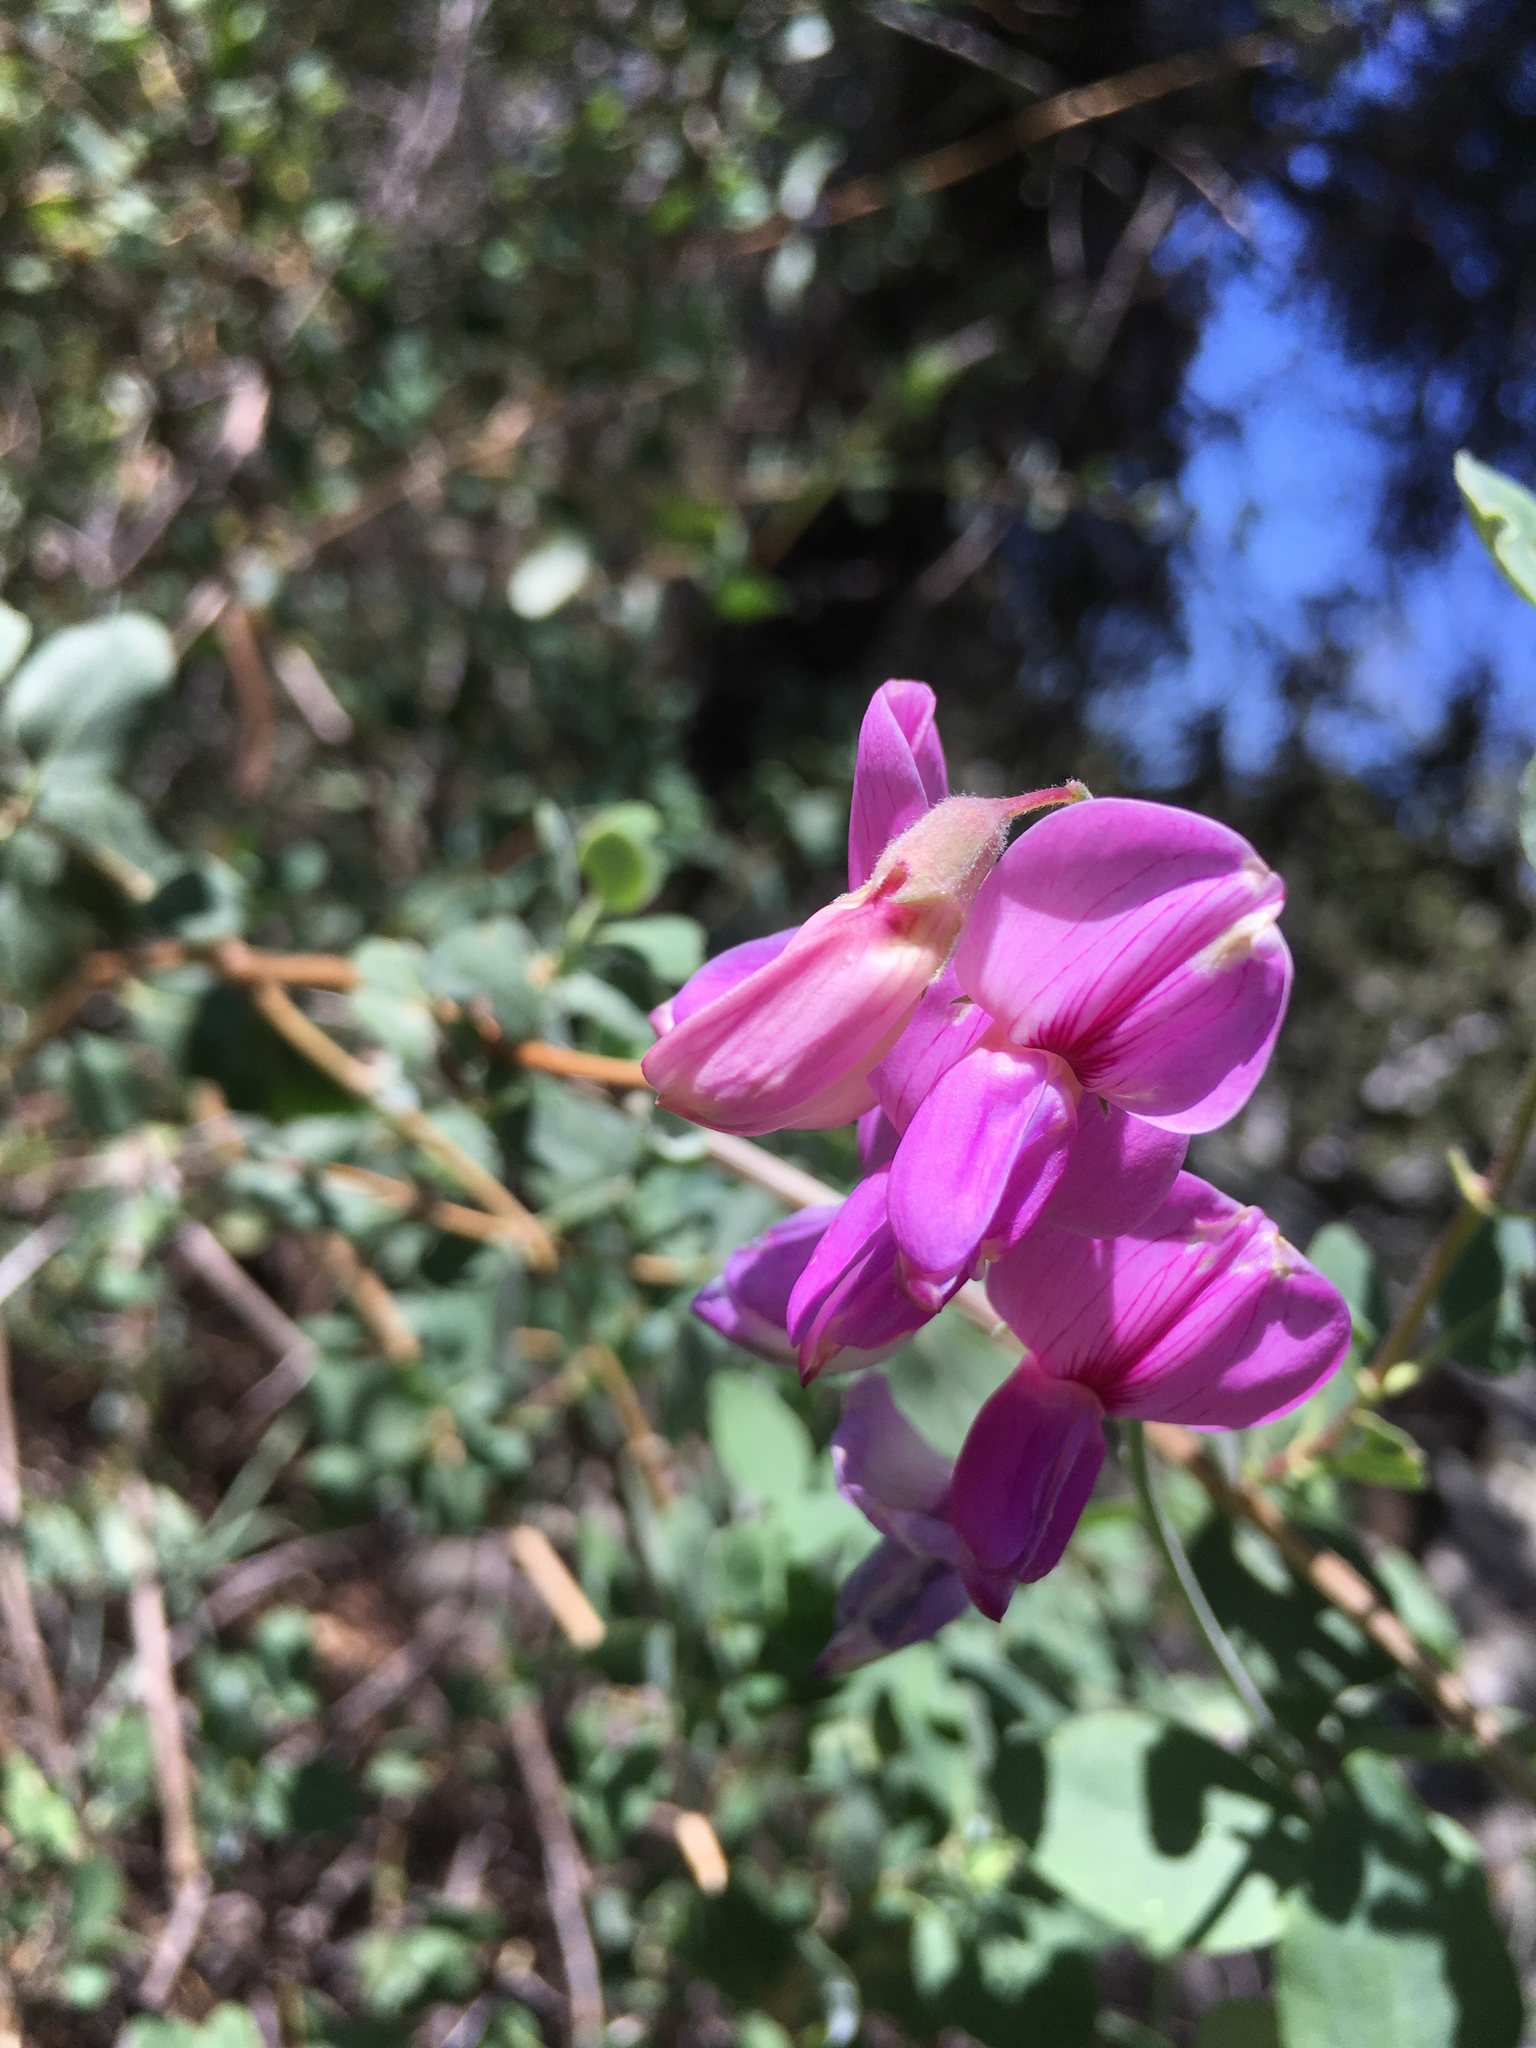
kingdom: Plantae
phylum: Tracheophyta
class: Magnoliopsida
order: Fabales
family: Fabaceae
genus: Lathyrus
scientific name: Lathyrus vestitus
